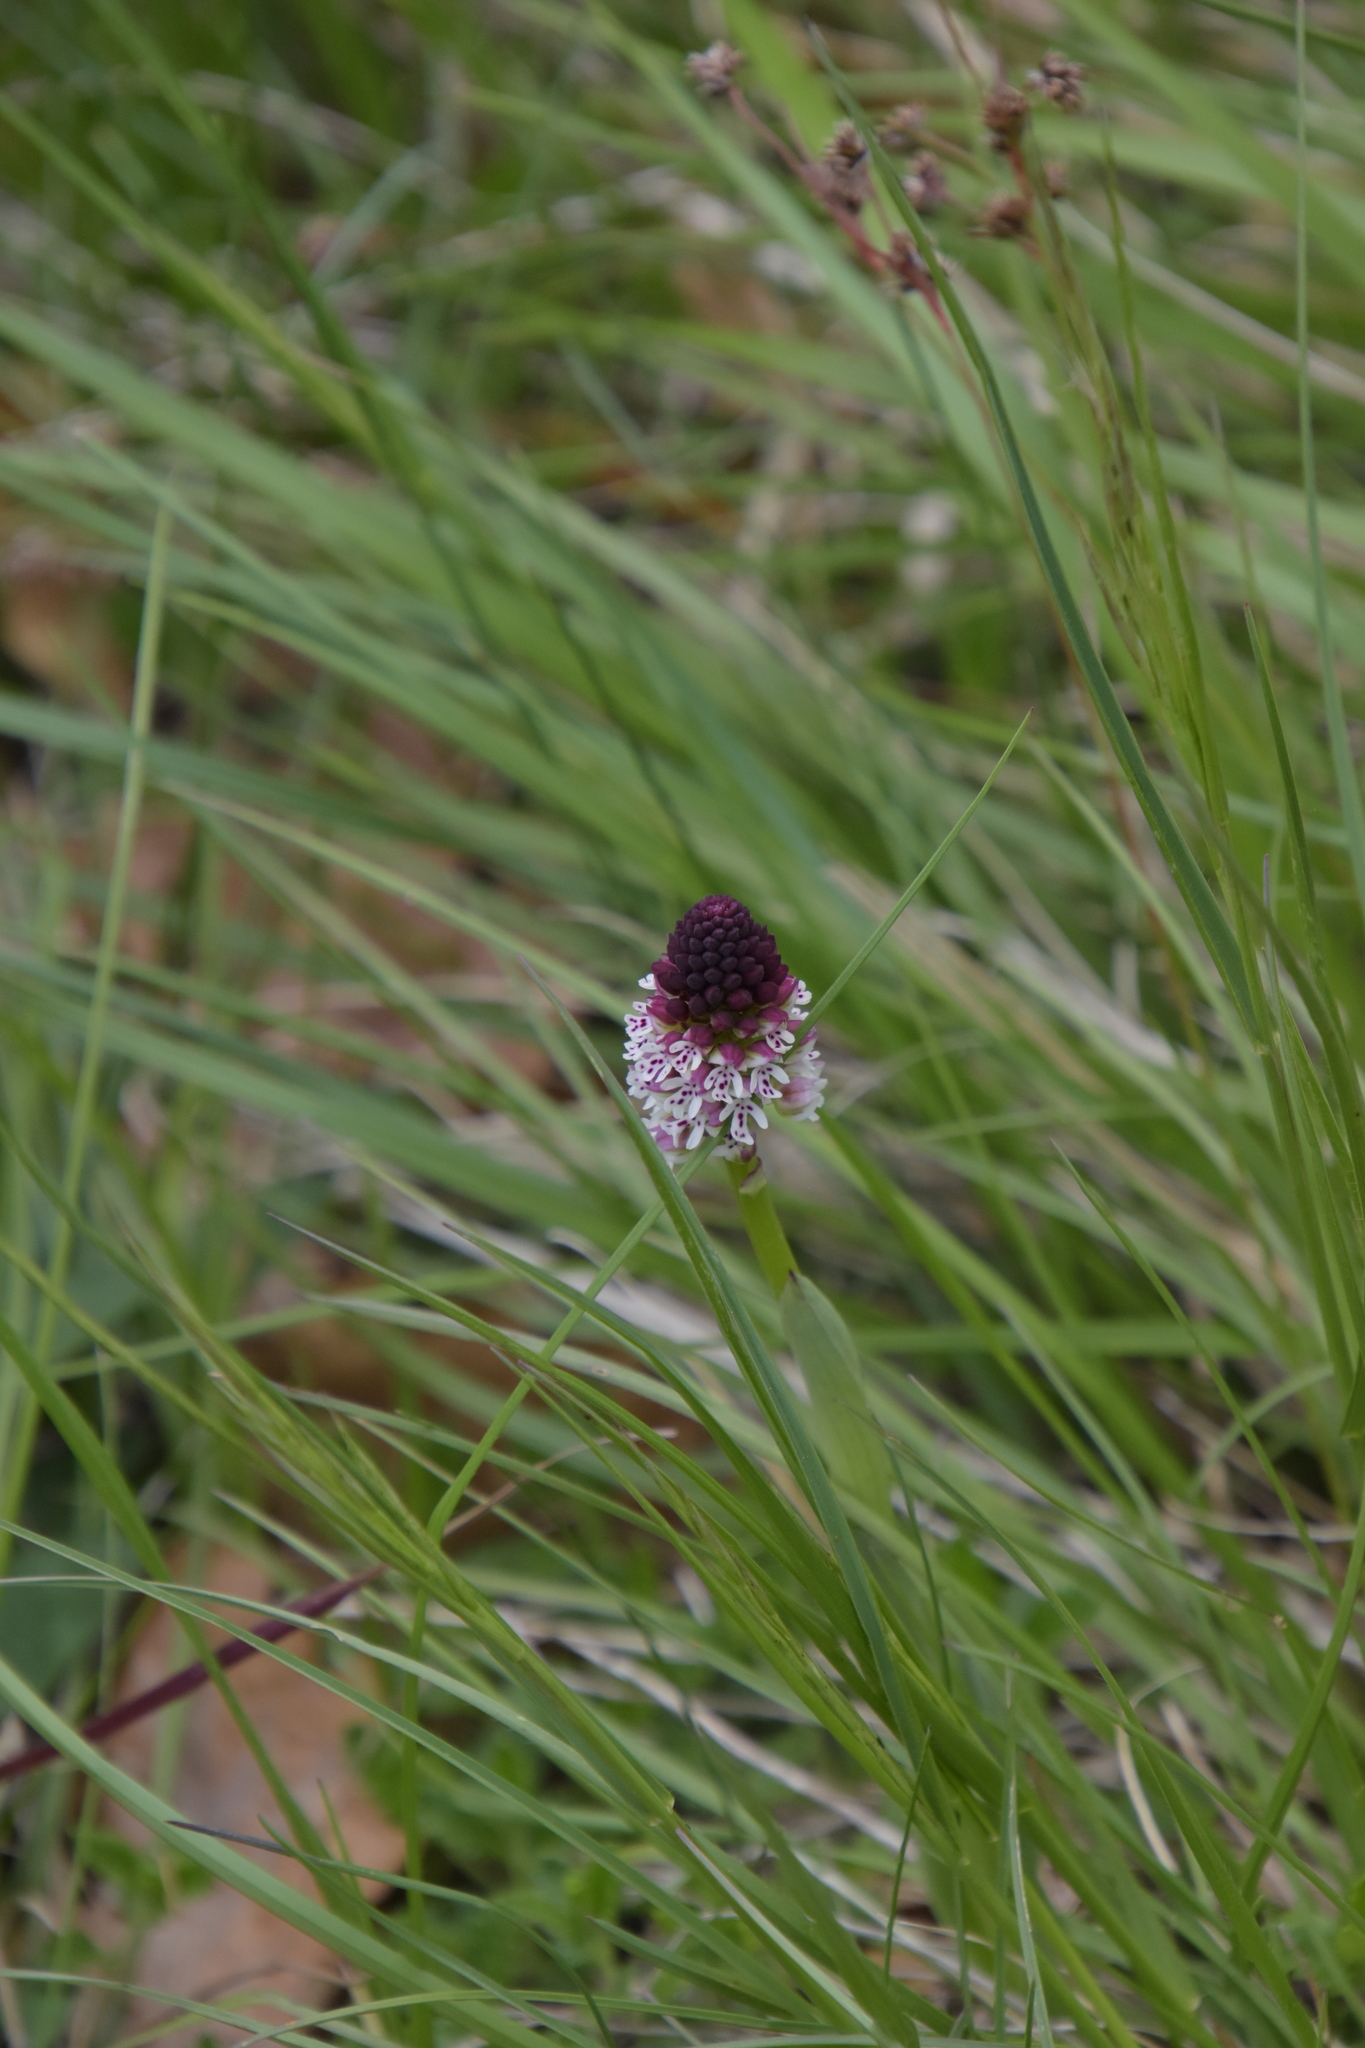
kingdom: Plantae
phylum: Tracheophyta
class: Liliopsida
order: Asparagales
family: Orchidaceae
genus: Neotinea
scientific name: Neotinea ustulata
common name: Burnt orchid
